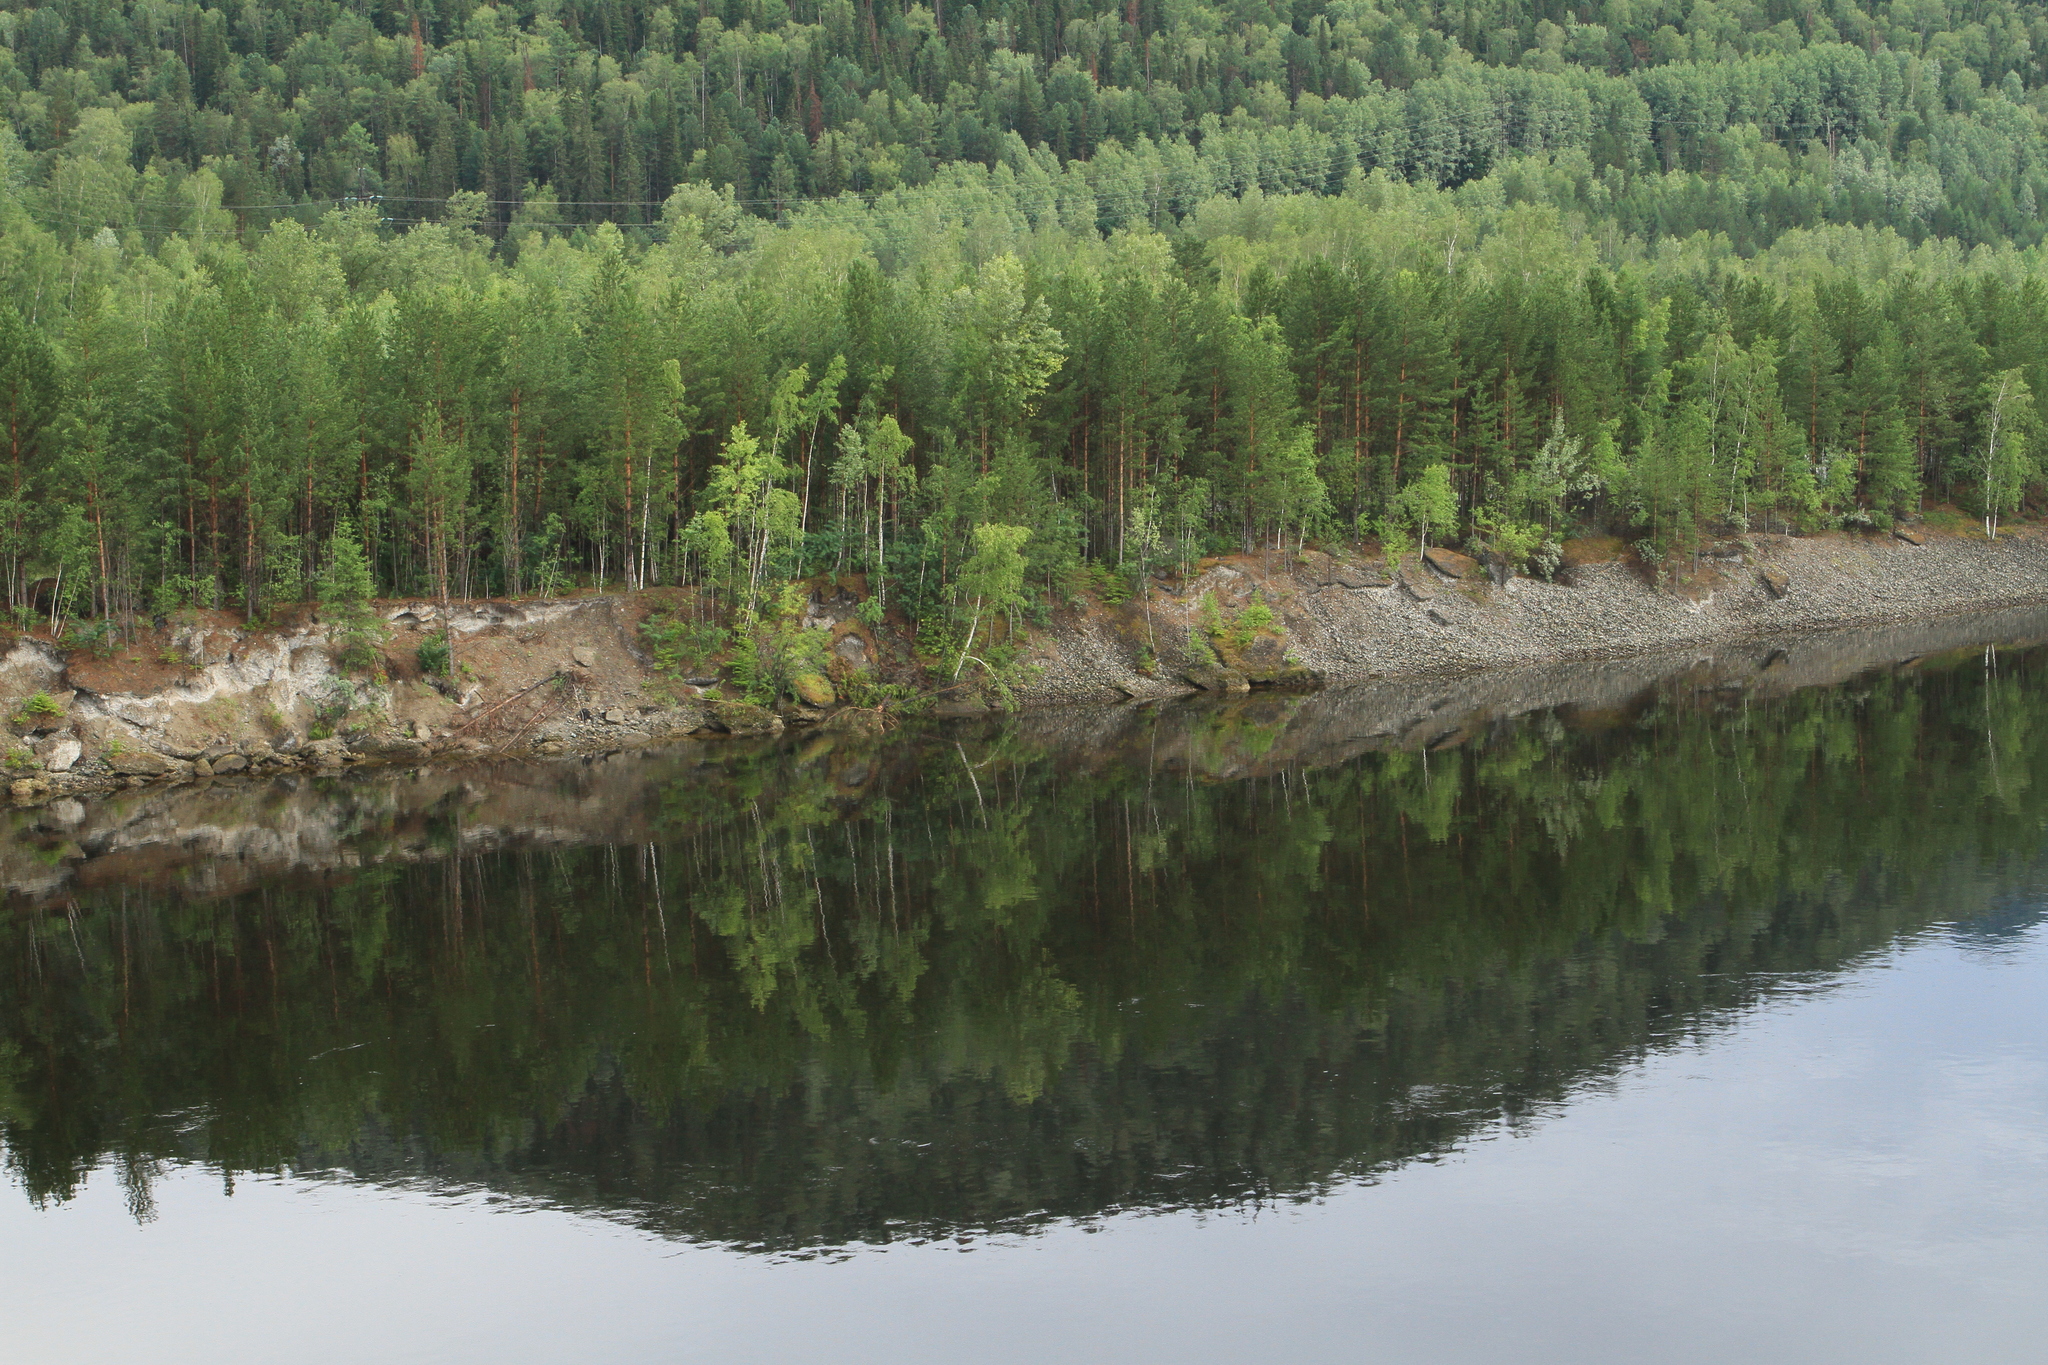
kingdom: Plantae
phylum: Tracheophyta
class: Pinopsida
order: Pinales
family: Pinaceae
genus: Pinus
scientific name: Pinus sylvestris
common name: Scots pine
